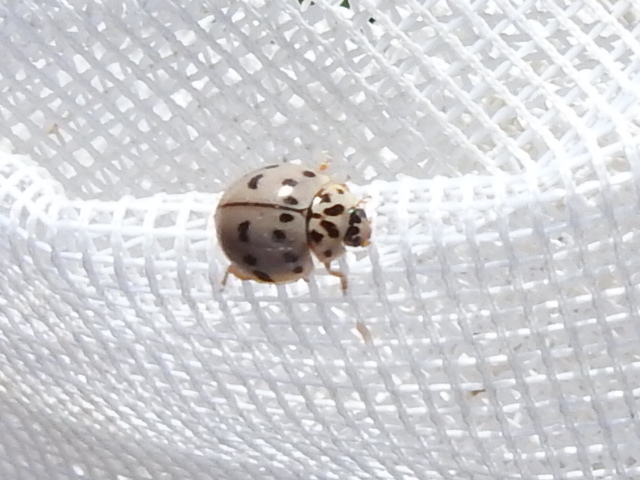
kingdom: Animalia
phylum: Arthropoda
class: Insecta
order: Coleoptera
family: Coccinellidae
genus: Olla
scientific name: Olla v-nigrum
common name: Ashy gray lady beetle
